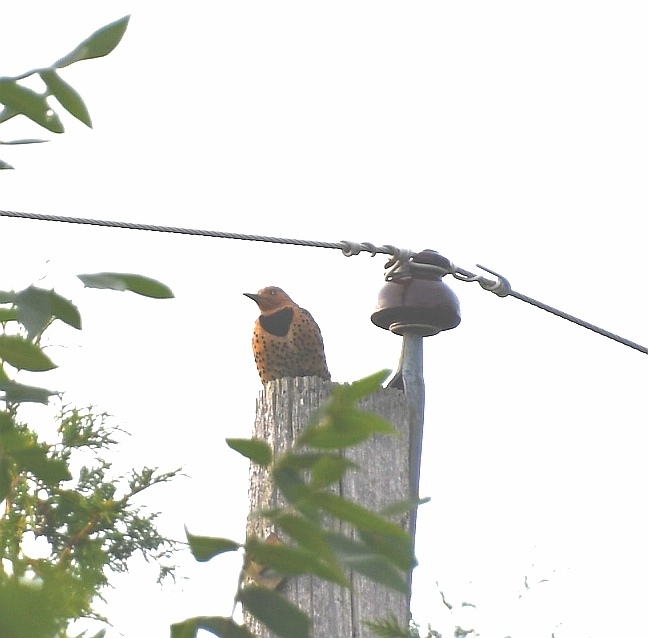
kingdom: Animalia
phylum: Chordata
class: Aves
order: Piciformes
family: Picidae
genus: Colaptes
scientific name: Colaptes auratus
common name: Northern flicker
